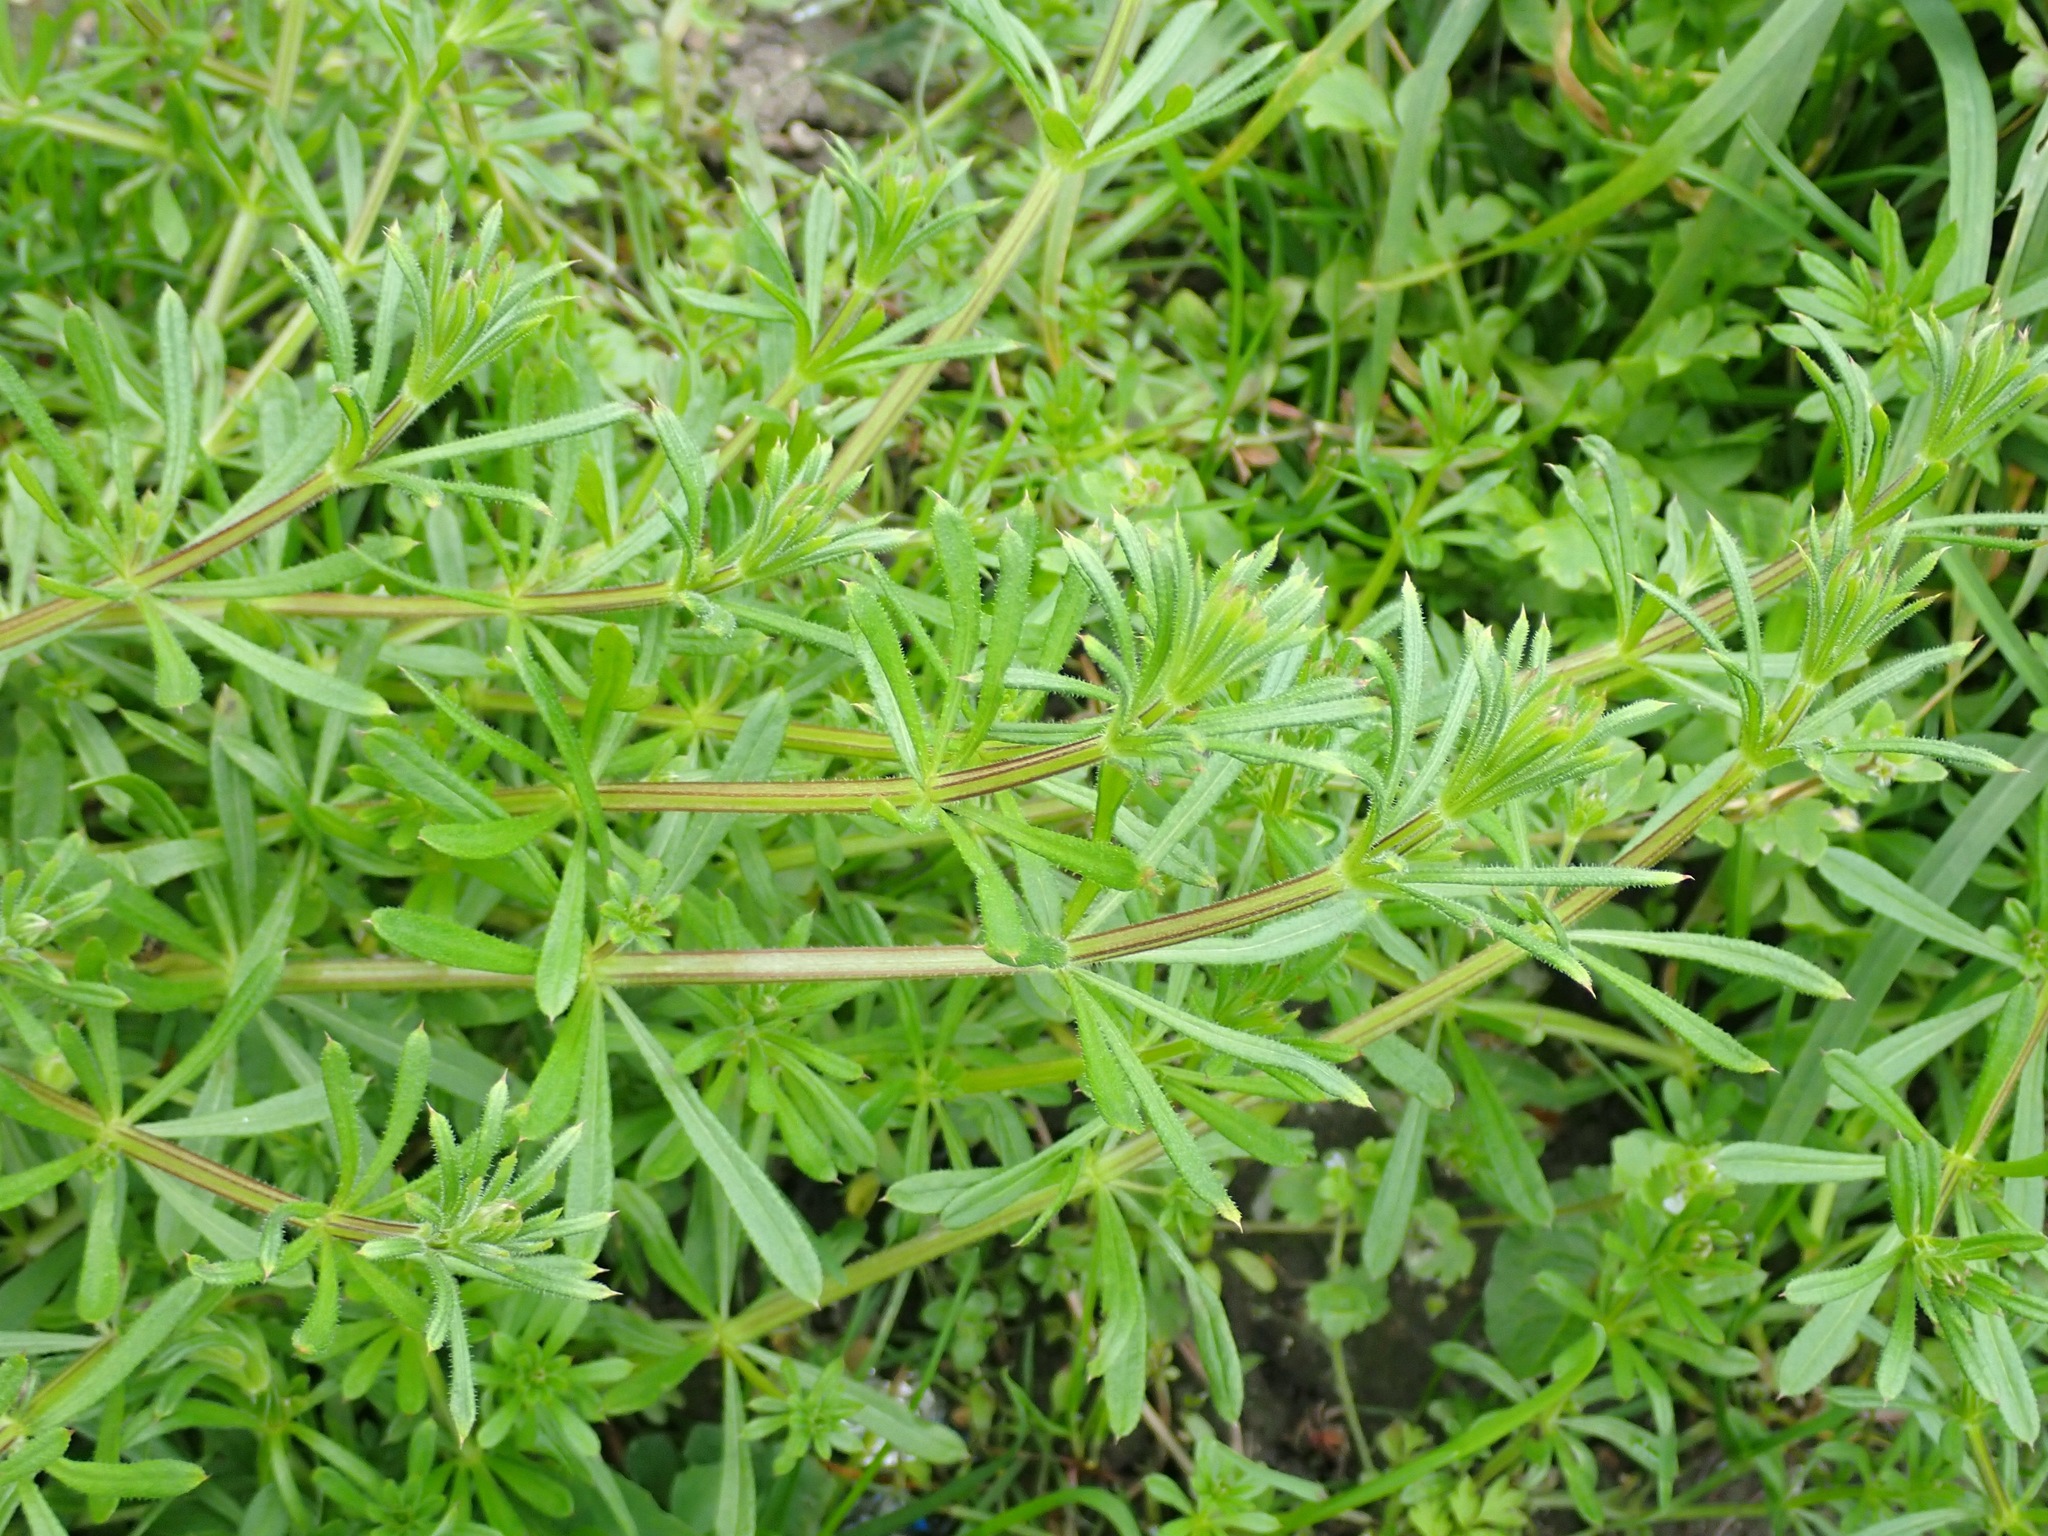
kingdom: Plantae
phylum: Tracheophyta
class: Magnoliopsida
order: Gentianales
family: Rubiaceae
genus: Galium
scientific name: Galium aparine
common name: Cleavers
